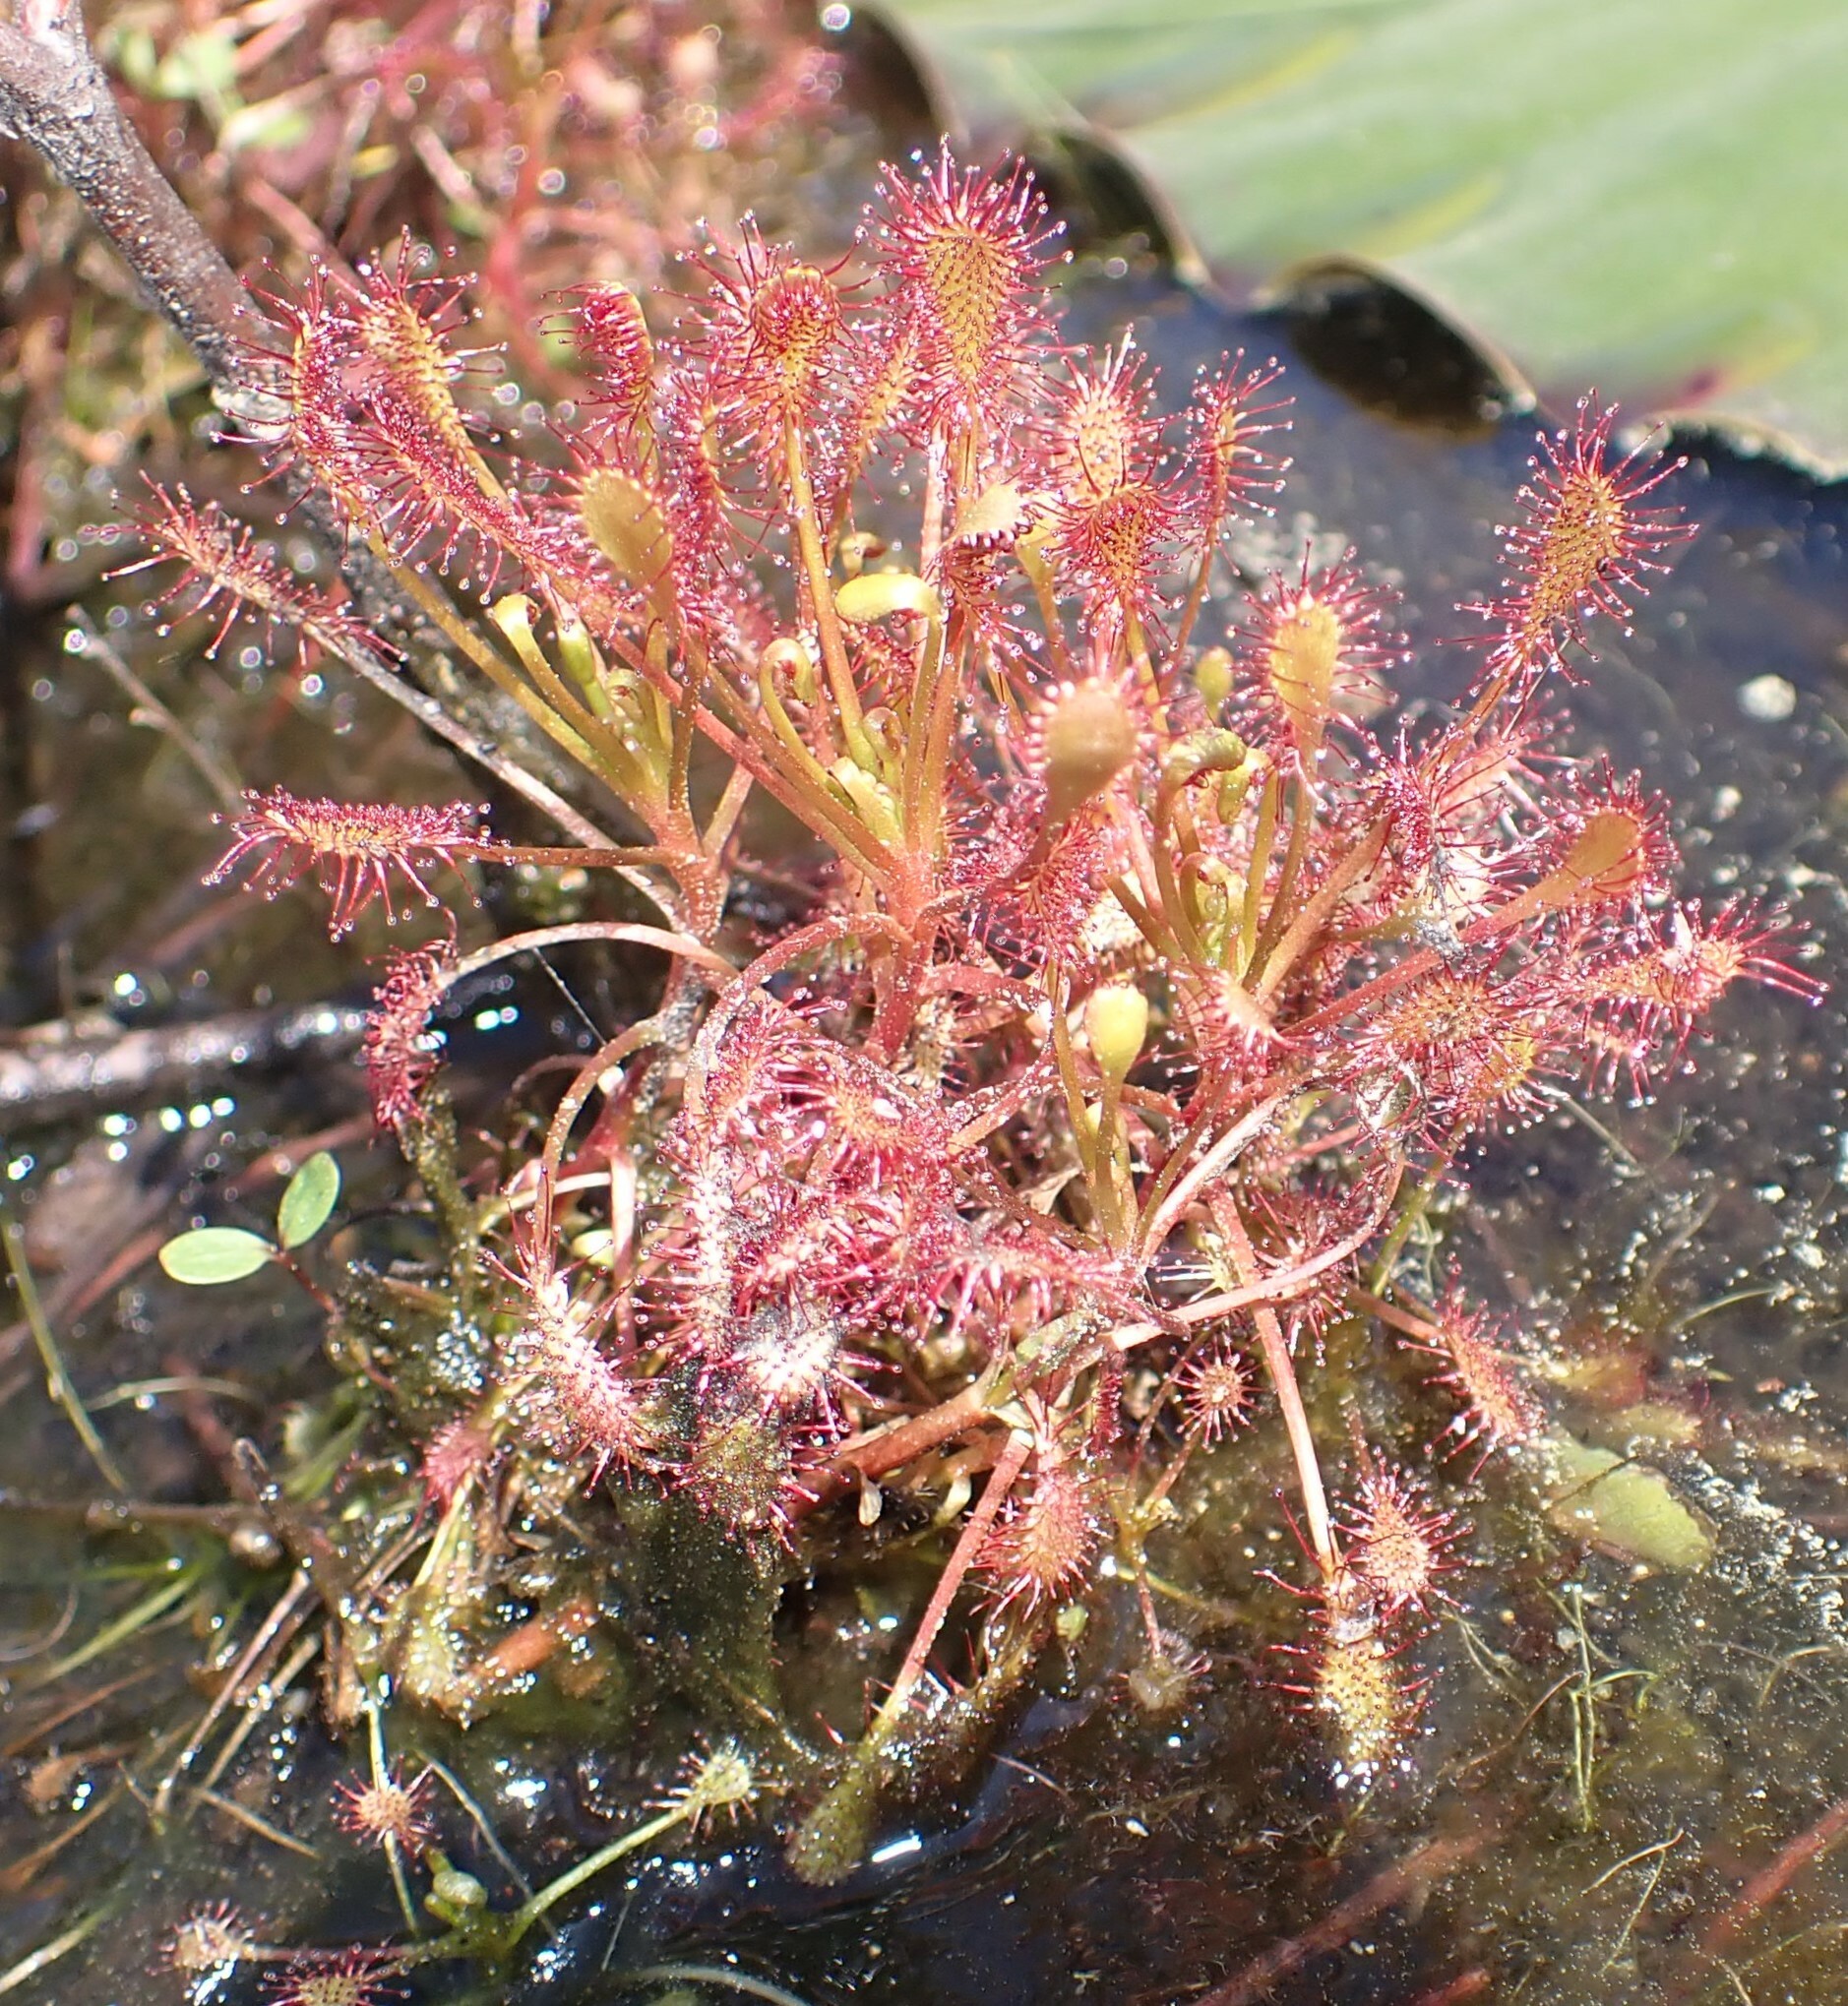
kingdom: Plantae
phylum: Tracheophyta
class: Magnoliopsida
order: Caryophyllales
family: Droseraceae
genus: Drosera
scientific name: Drosera intermedia
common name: Oblong-leaved sundew
